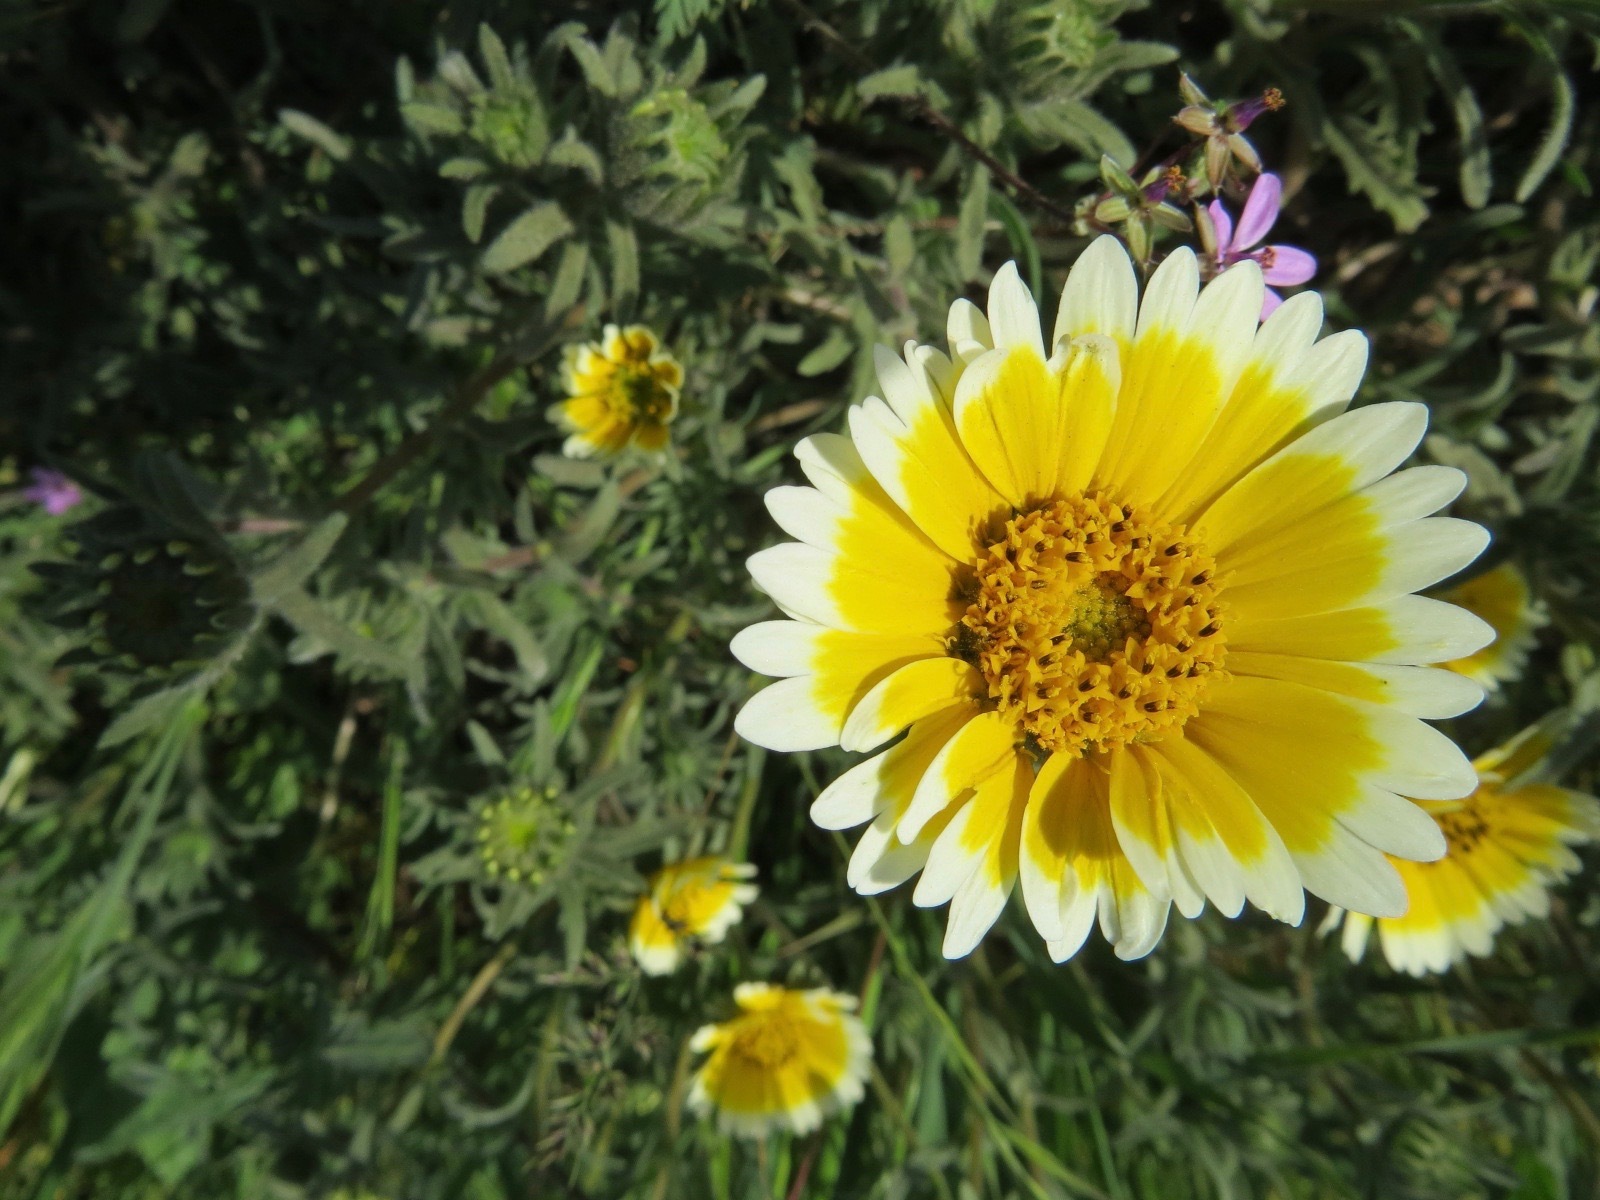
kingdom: Plantae
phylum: Tracheophyta
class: Magnoliopsida
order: Asterales
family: Asteraceae
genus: Layia
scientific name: Layia platyglossa
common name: Tidy-tips
